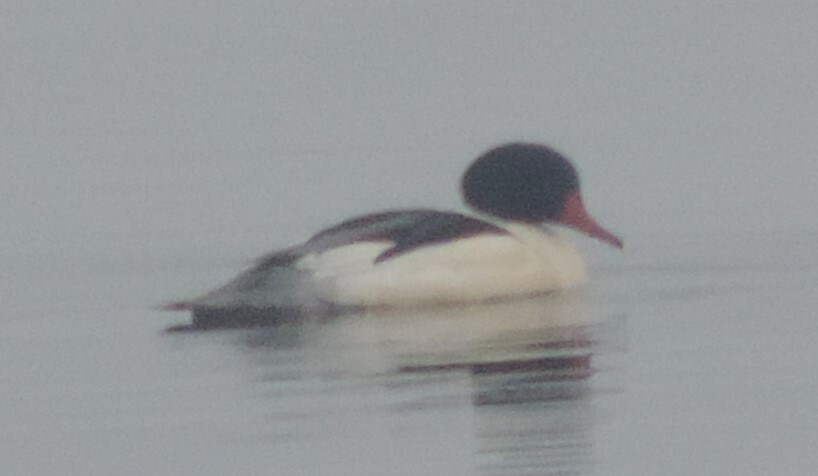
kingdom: Animalia
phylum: Chordata
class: Aves
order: Anseriformes
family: Anatidae
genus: Mergus
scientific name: Mergus merganser
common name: Common merganser
